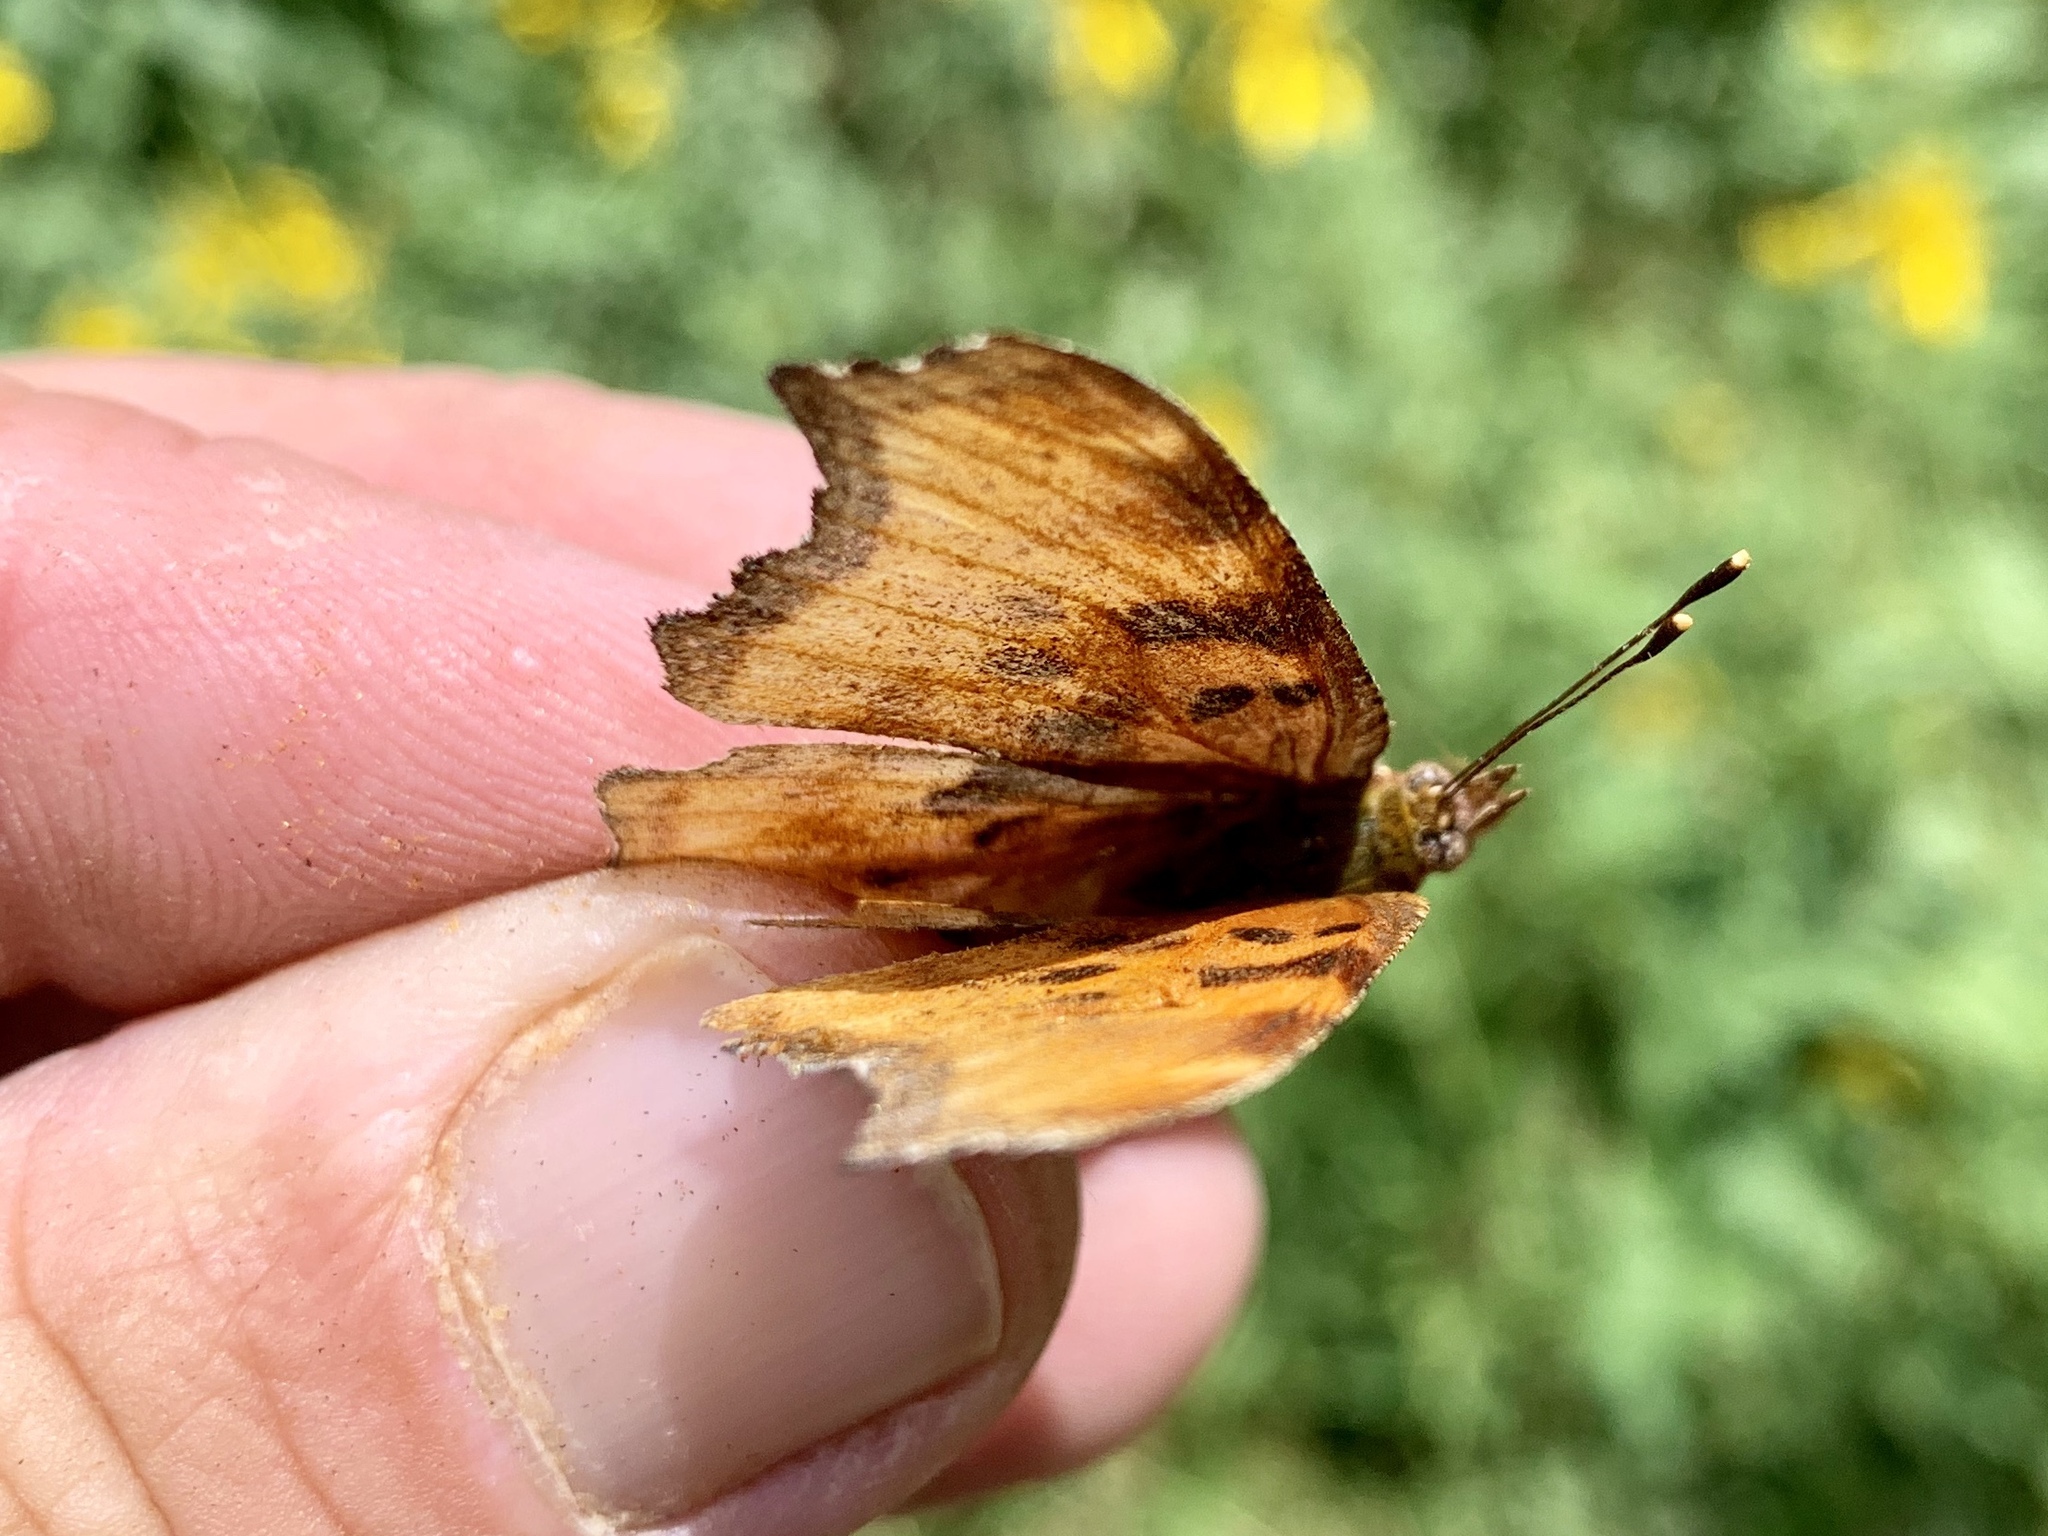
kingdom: Animalia
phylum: Arthropoda
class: Insecta
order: Lepidoptera
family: Nymphalidae
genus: Polygonia
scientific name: Polygonia satyrus
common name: Satyr angle wing
